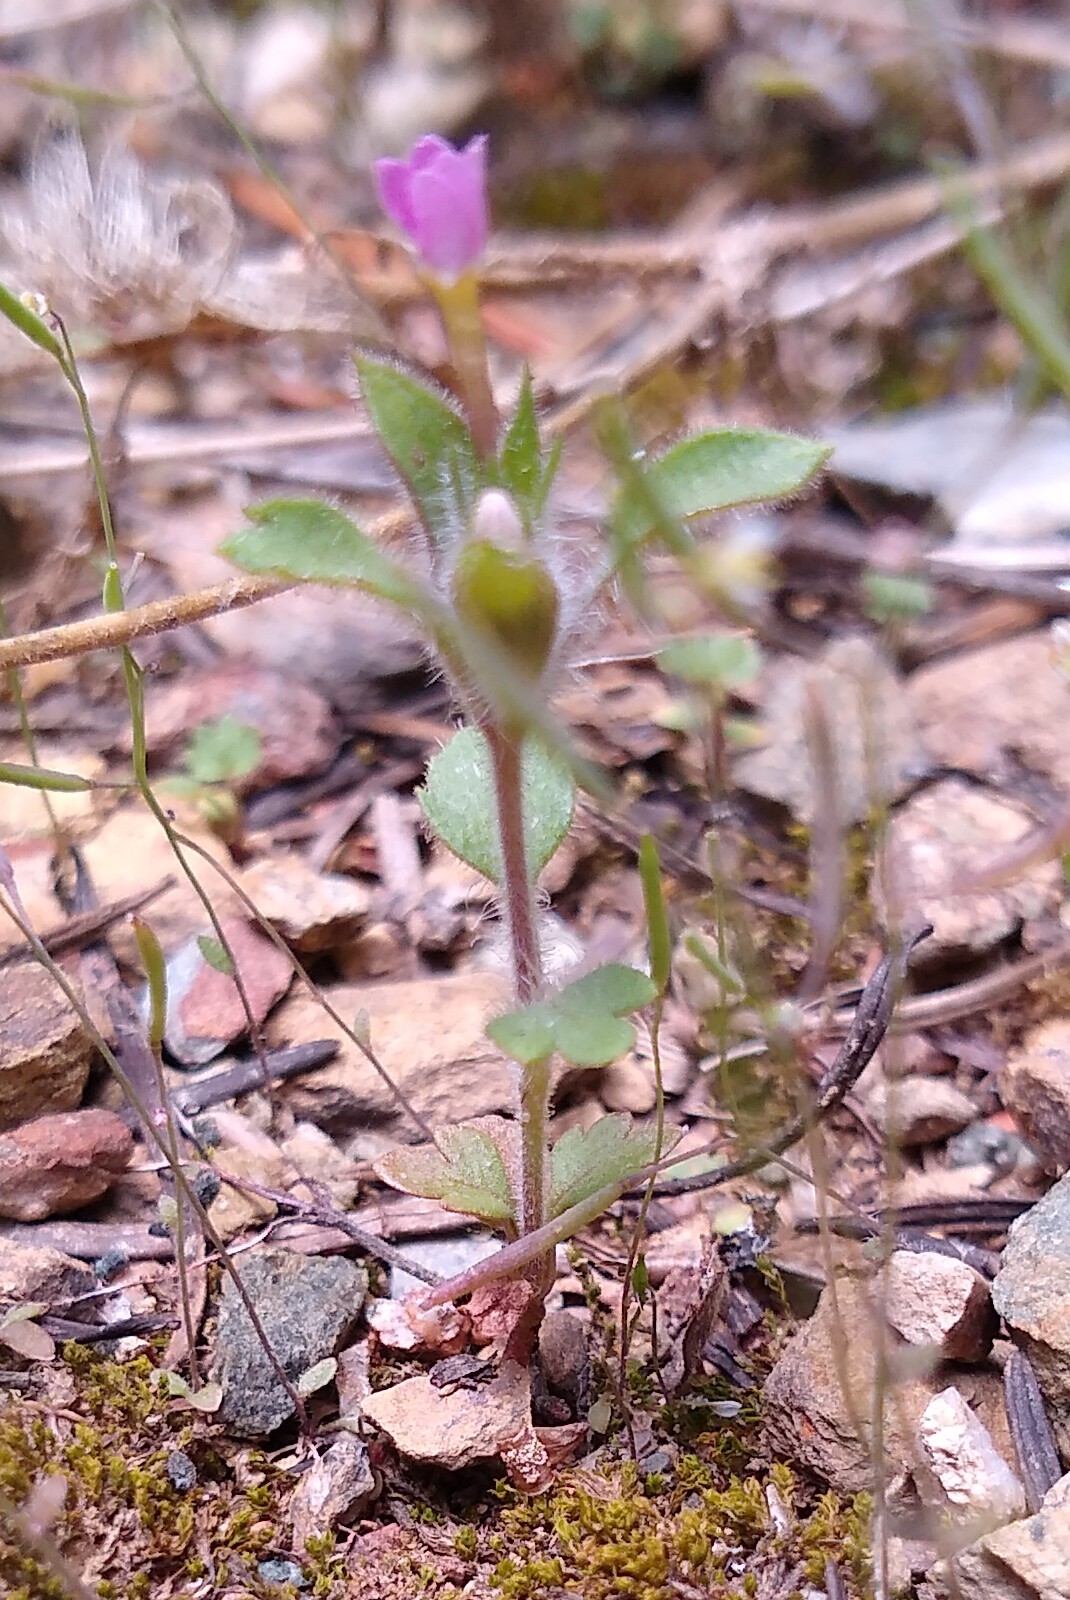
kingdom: Plantae
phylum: Tracheophyta
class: Magnoliopsida
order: Ericales
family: Polemoniaceae
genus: Collomia
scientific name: Collomia heterophylla
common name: Variable-leaved collomia
